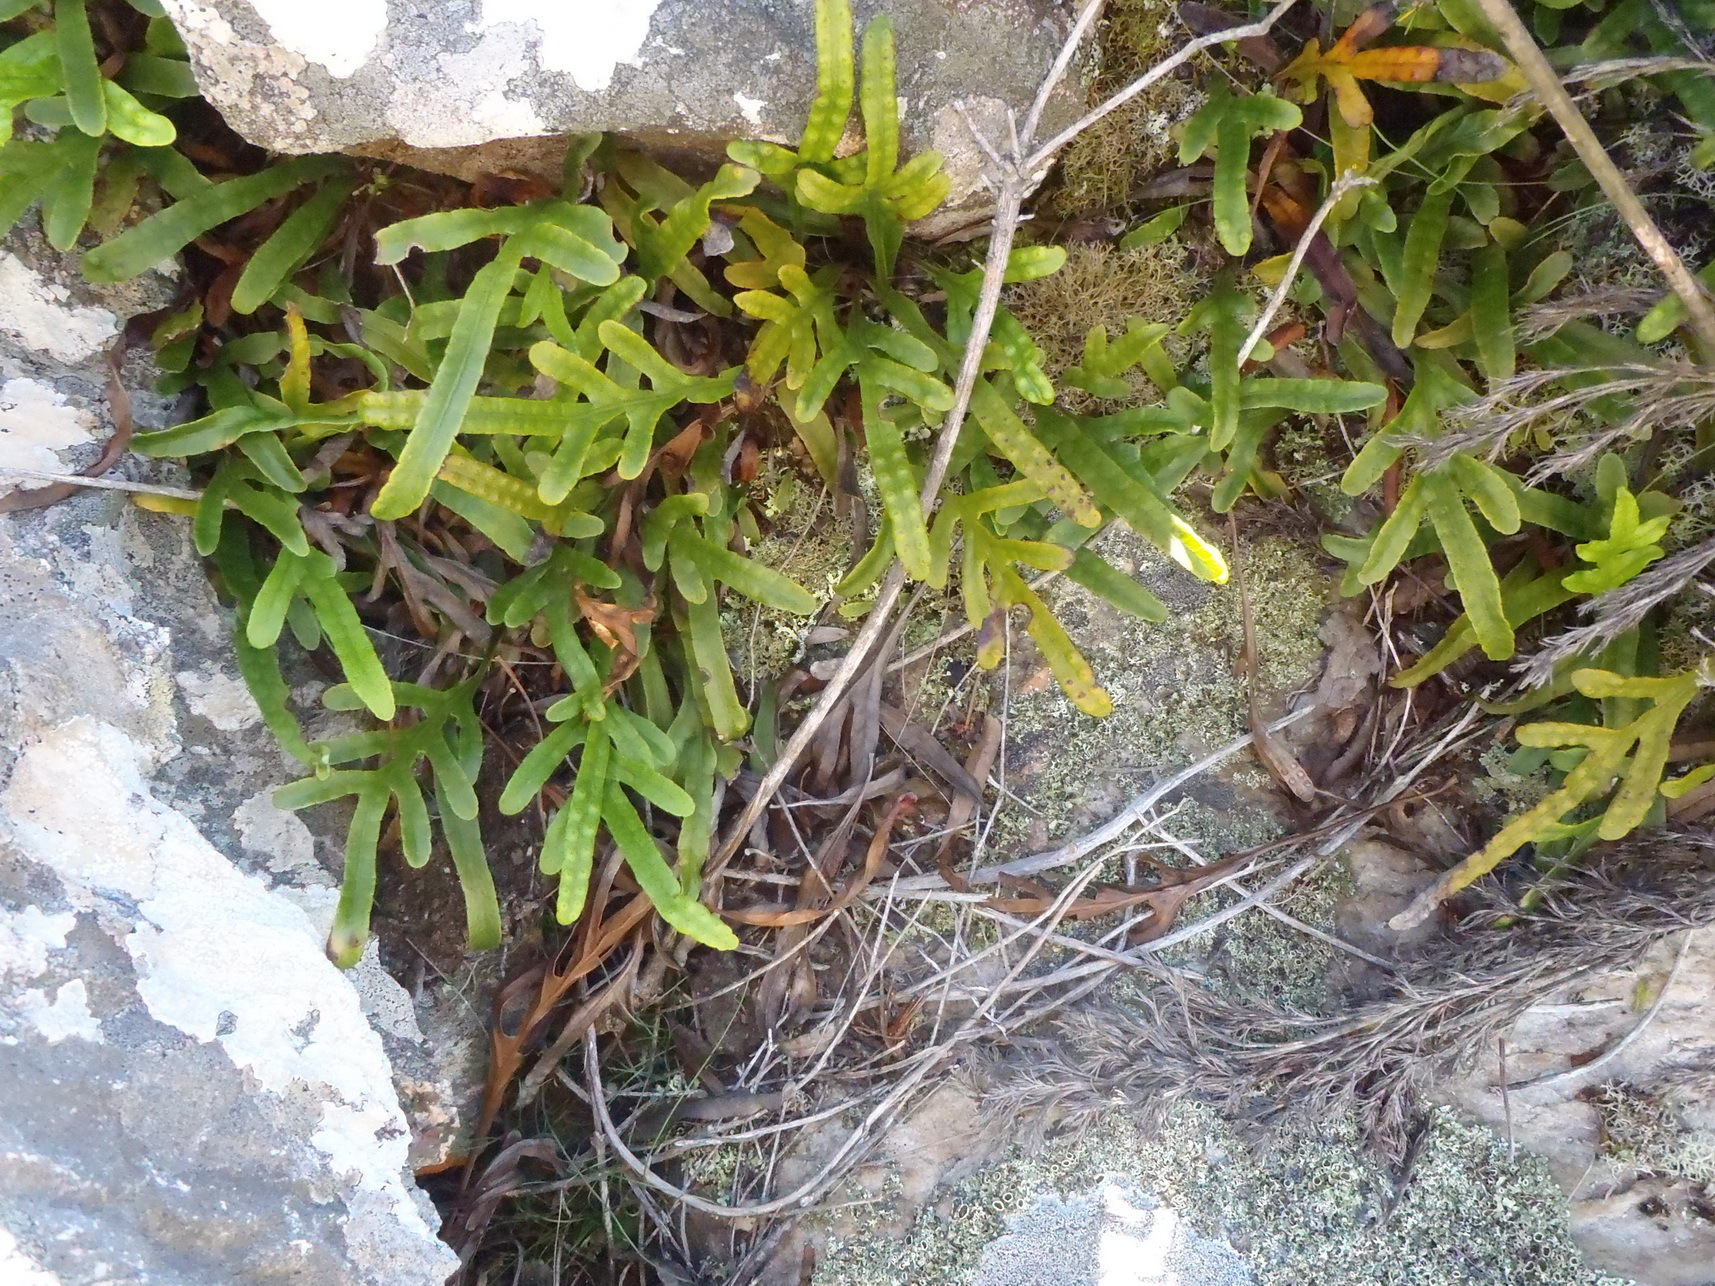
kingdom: Plantae
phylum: Tracheophyta
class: Polypodiopsida
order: Polypodiales
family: Polypodiaceae
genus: Polypodium
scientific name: Polypodium ensiforme
